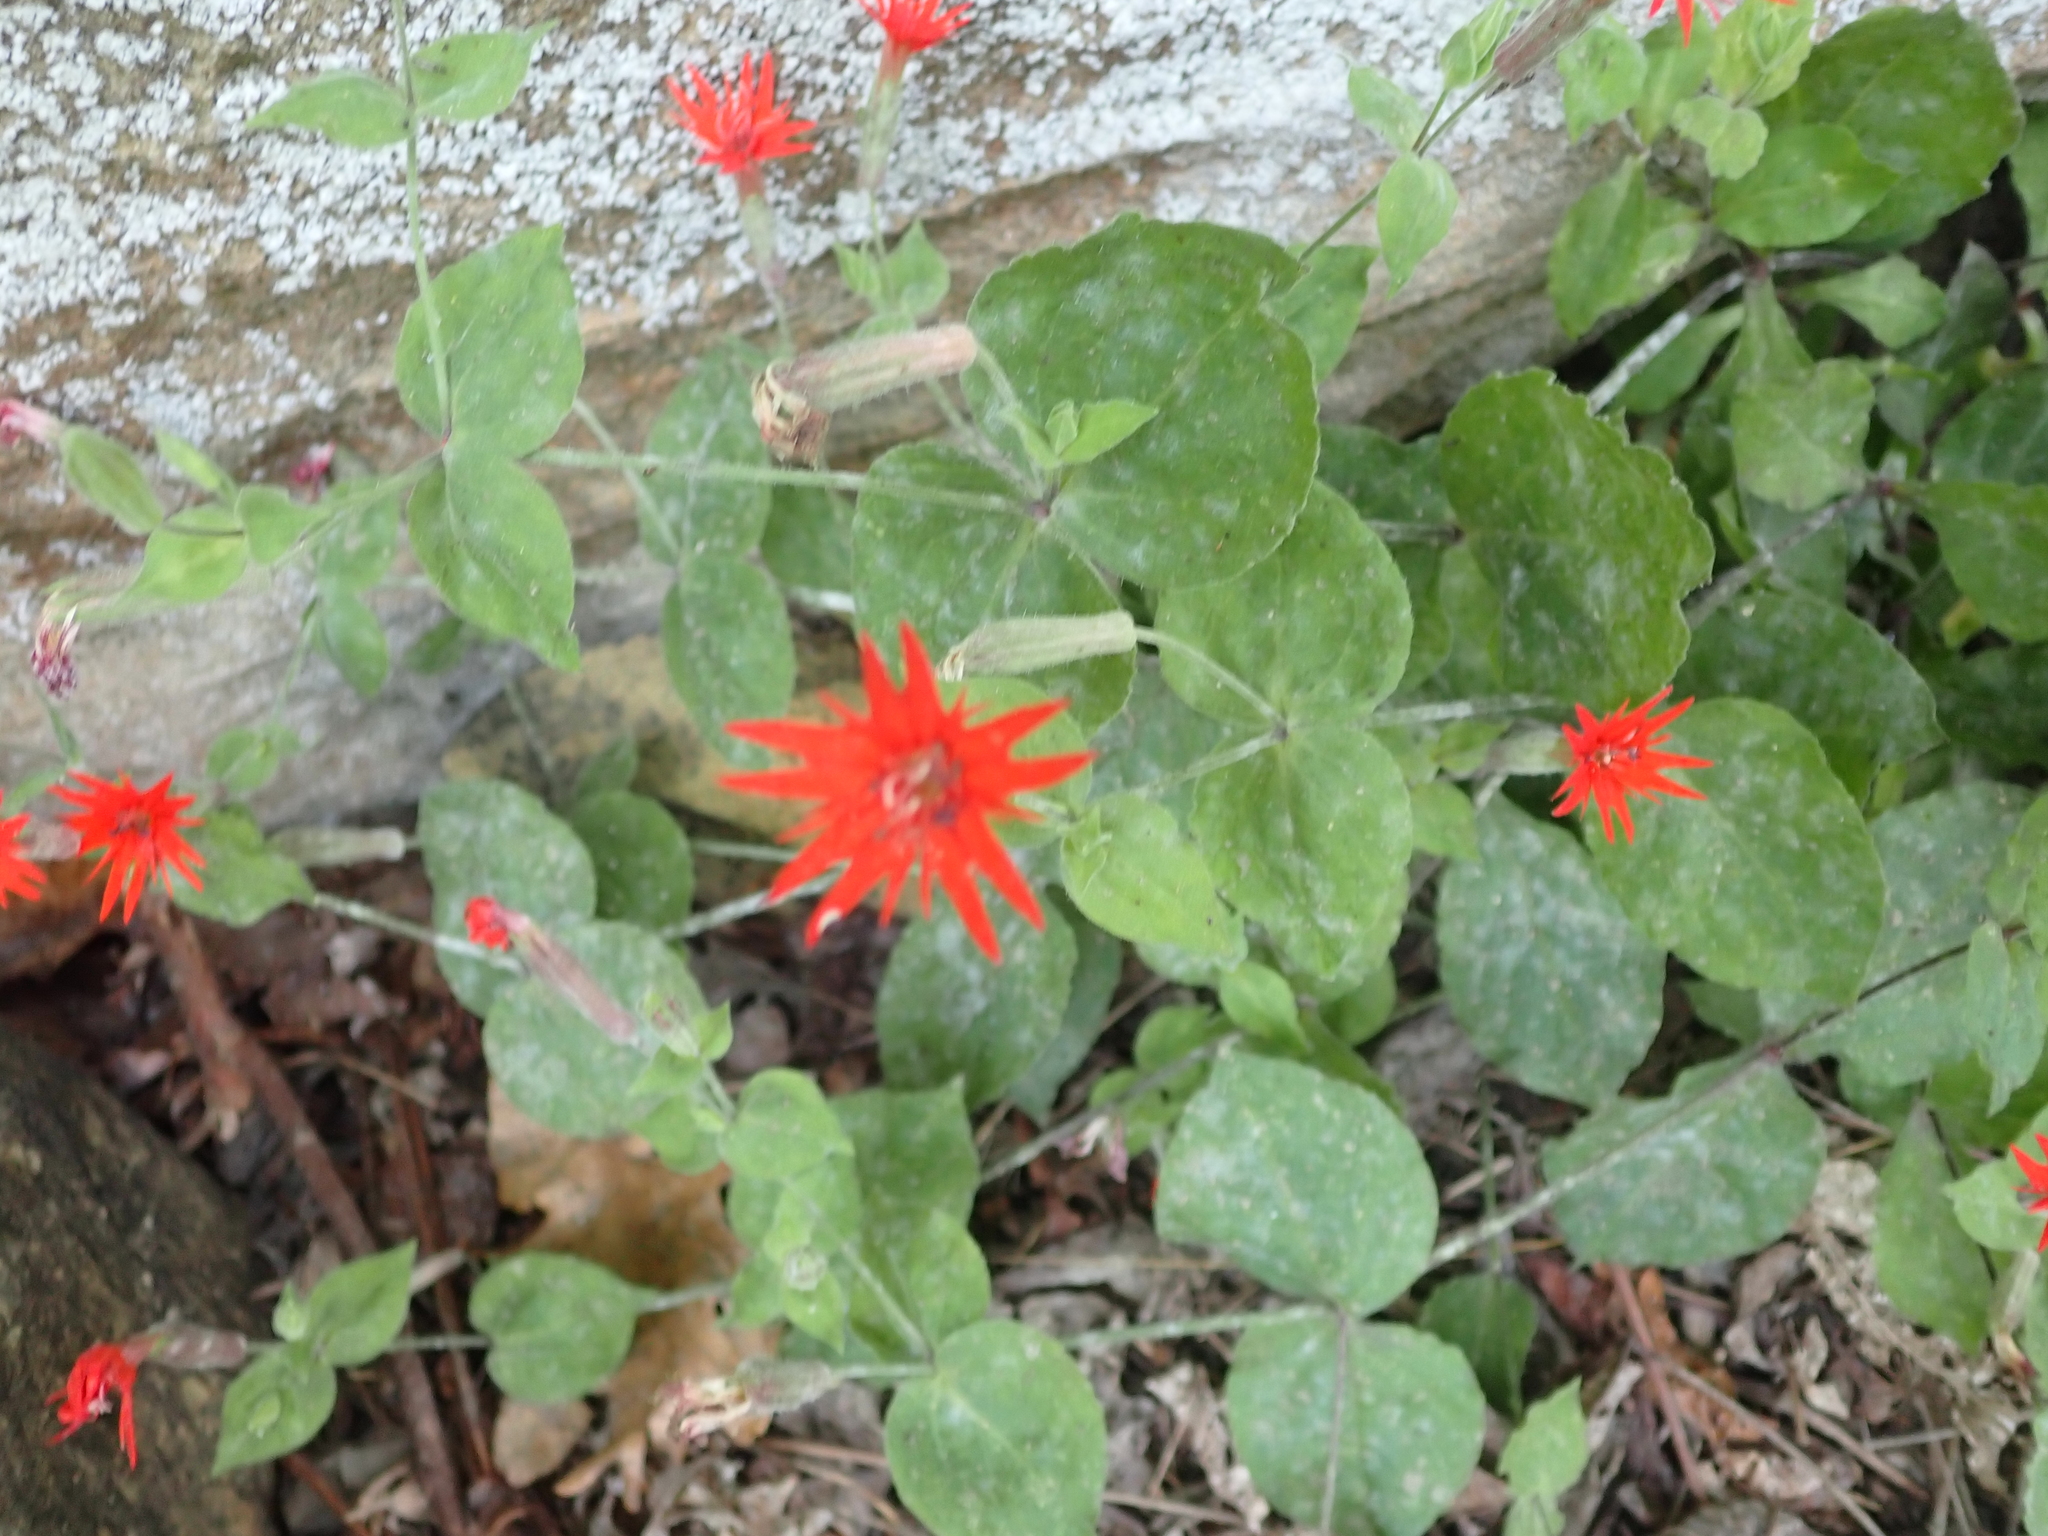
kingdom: Plantae
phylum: Tracheophyta
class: Magnoliopsida
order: Caryophyllales
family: Caryophyllaceae
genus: Silene
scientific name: Silene rotundifolia
